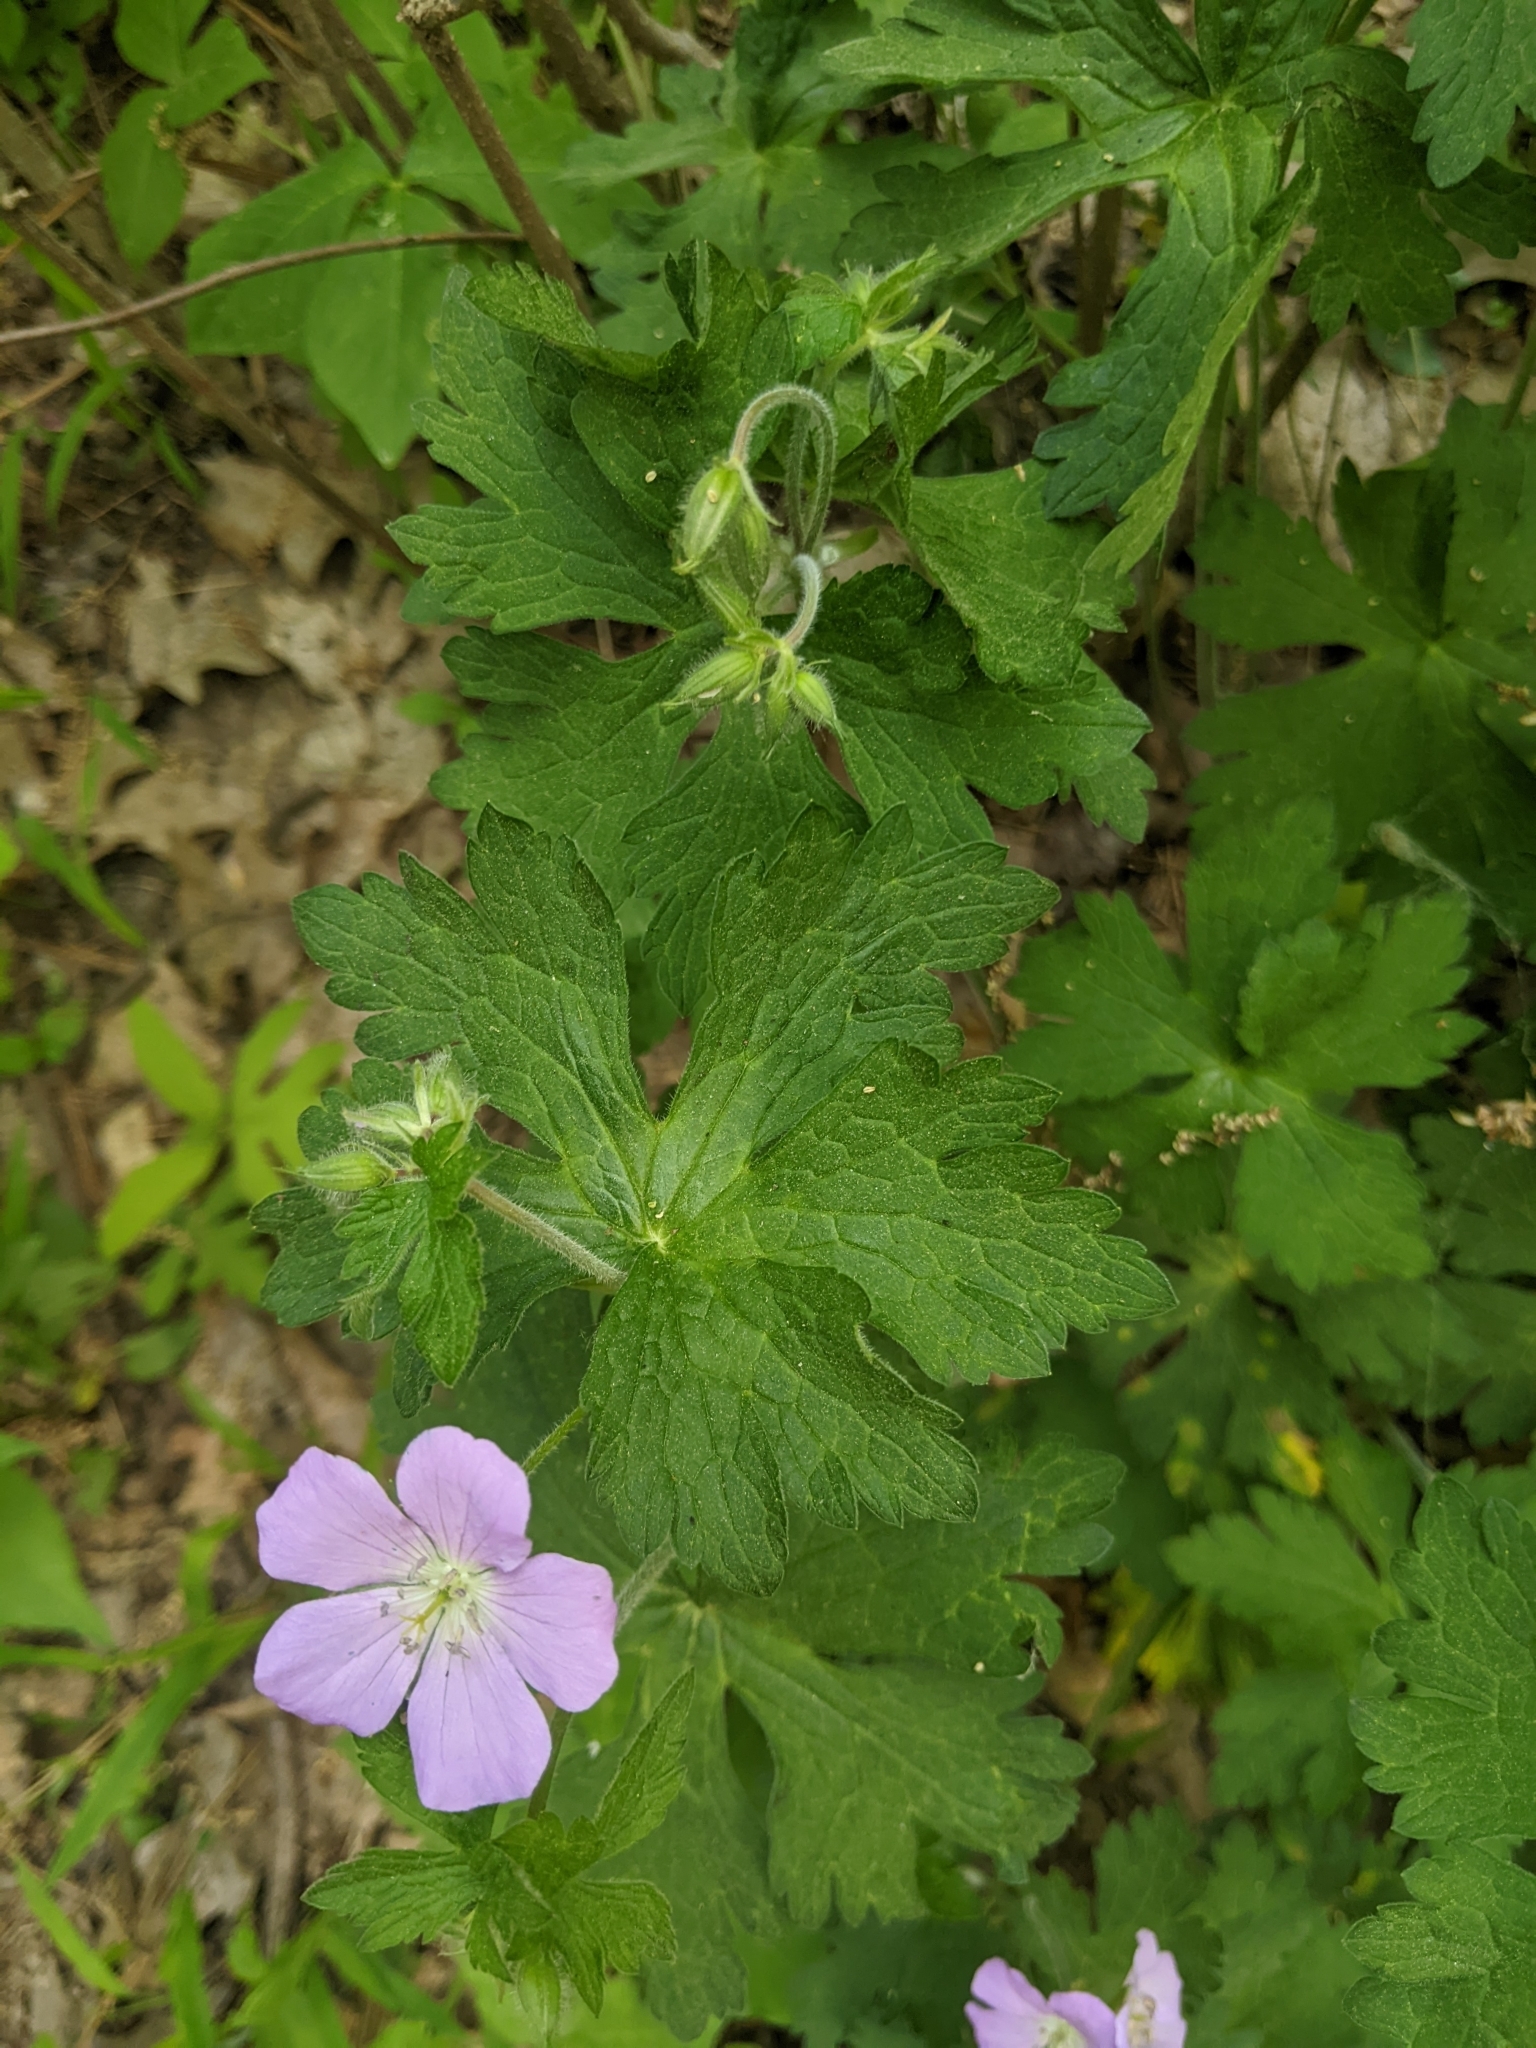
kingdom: Plantae
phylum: Tracheophyta
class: Magnoliopsida
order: Geraniales
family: Geraniaceae
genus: Geranium
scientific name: Geranium maculatum
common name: Spotted geranium
